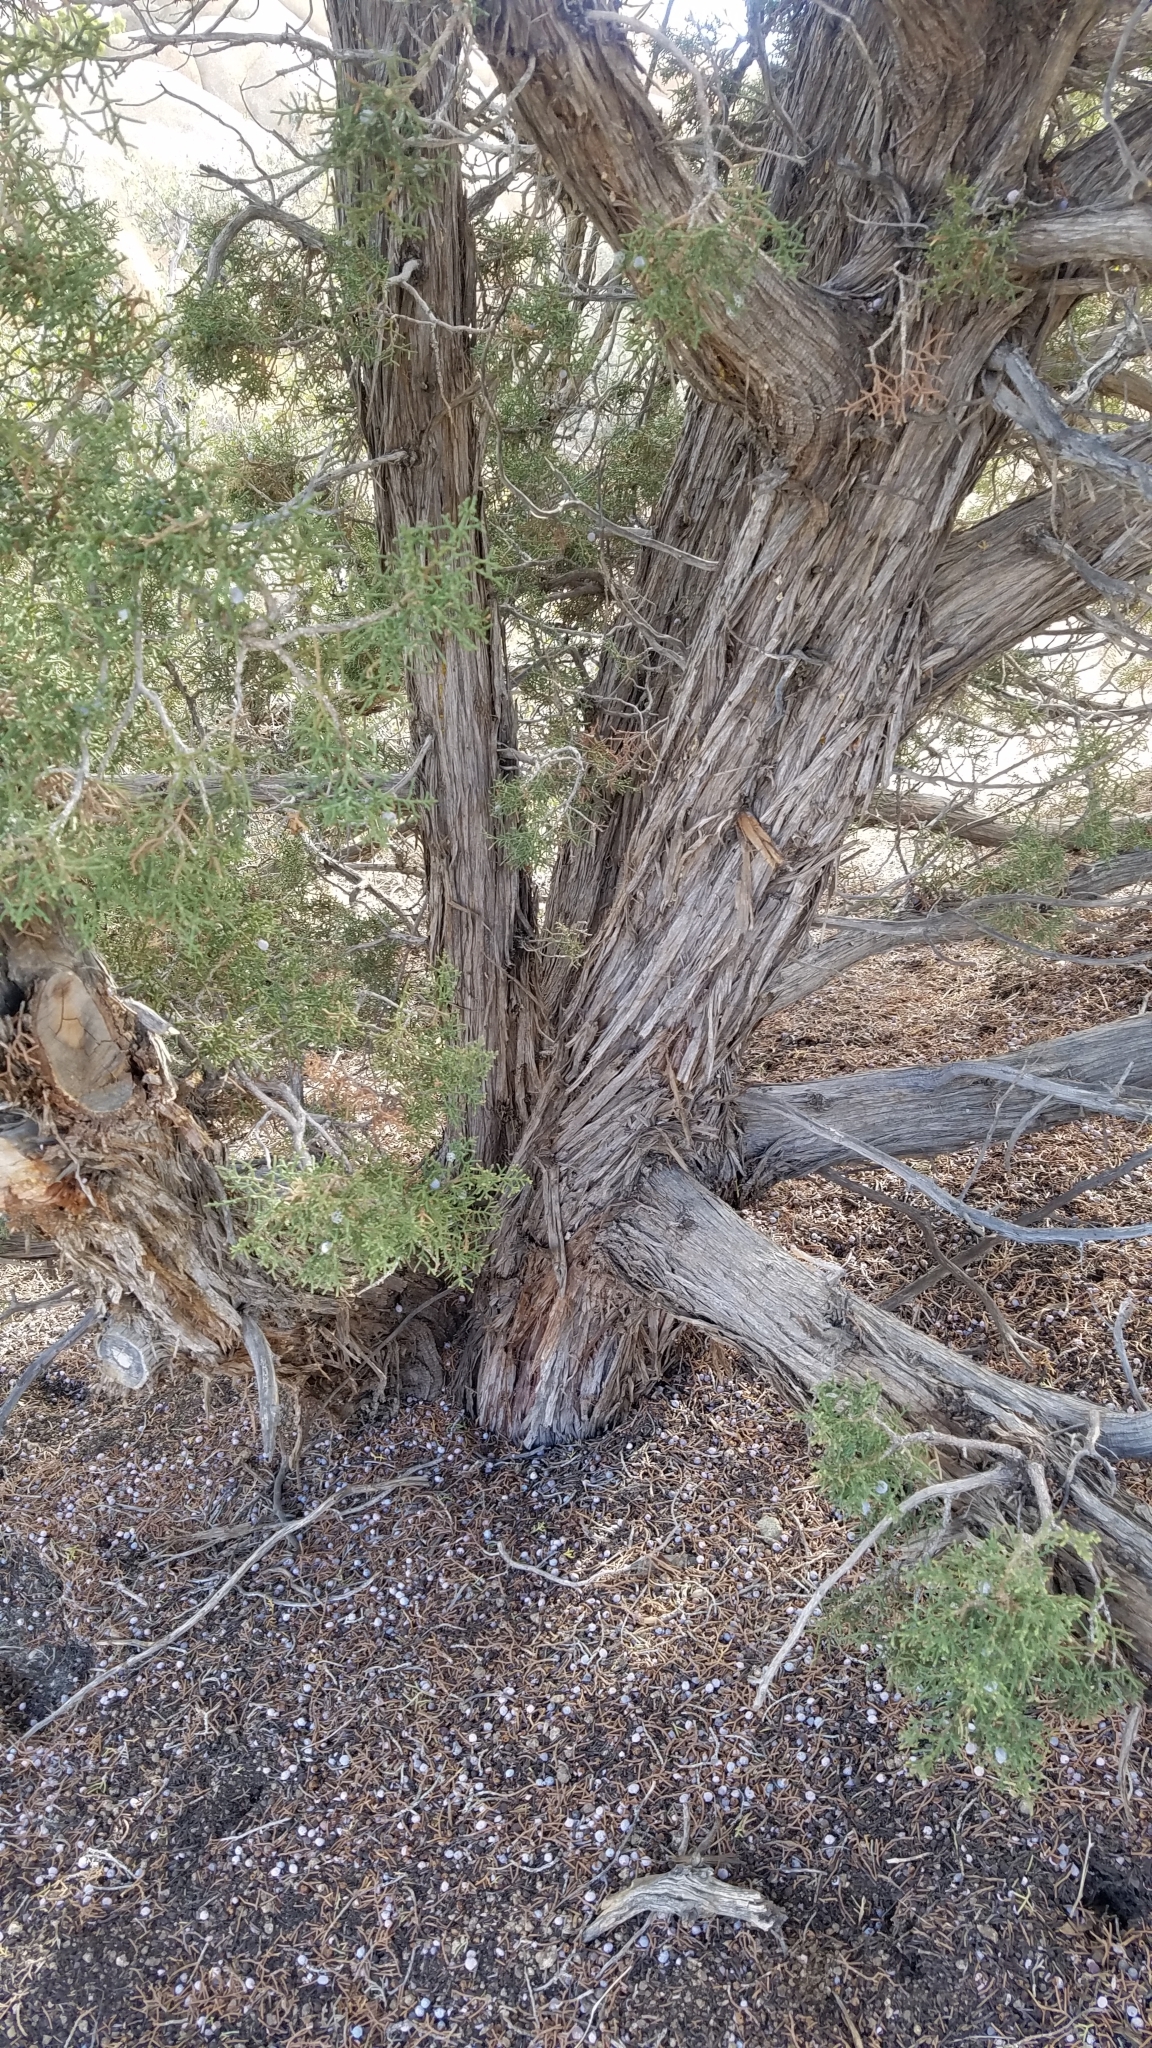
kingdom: Plantae
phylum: Tracheophyta
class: Pinopsida
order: Pinales
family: Cupressaceae
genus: Juniperus
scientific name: Juniperus californica
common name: California juniper
